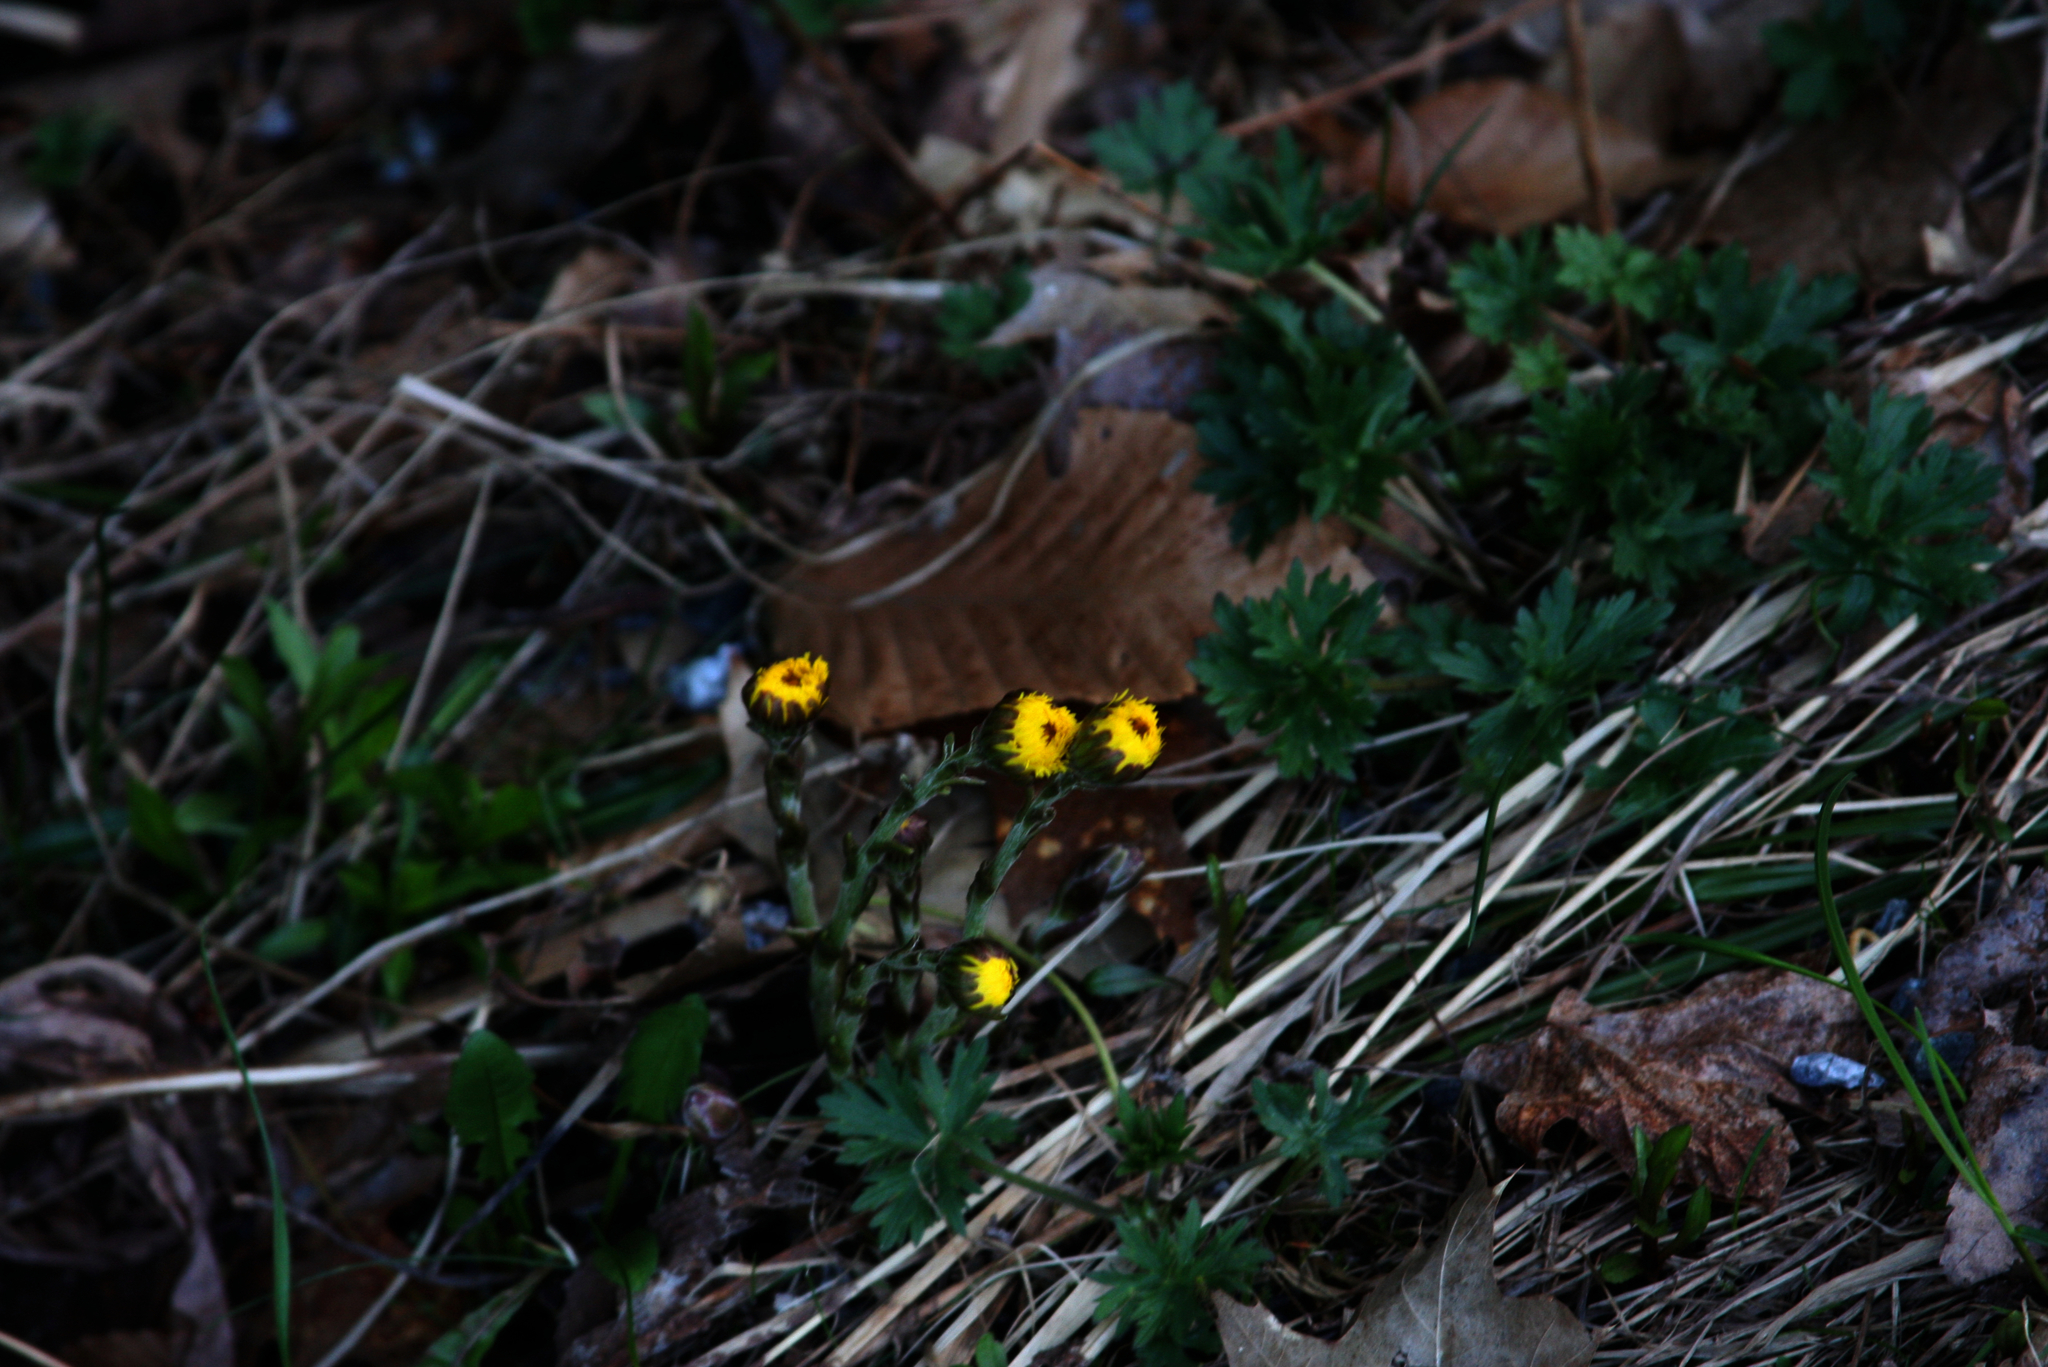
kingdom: Plantae
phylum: Tracheophyta
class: Magnoliopsida
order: Asterales
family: Asteraceae
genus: Tussilago
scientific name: Tussilago farfara
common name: Coltsfoot
